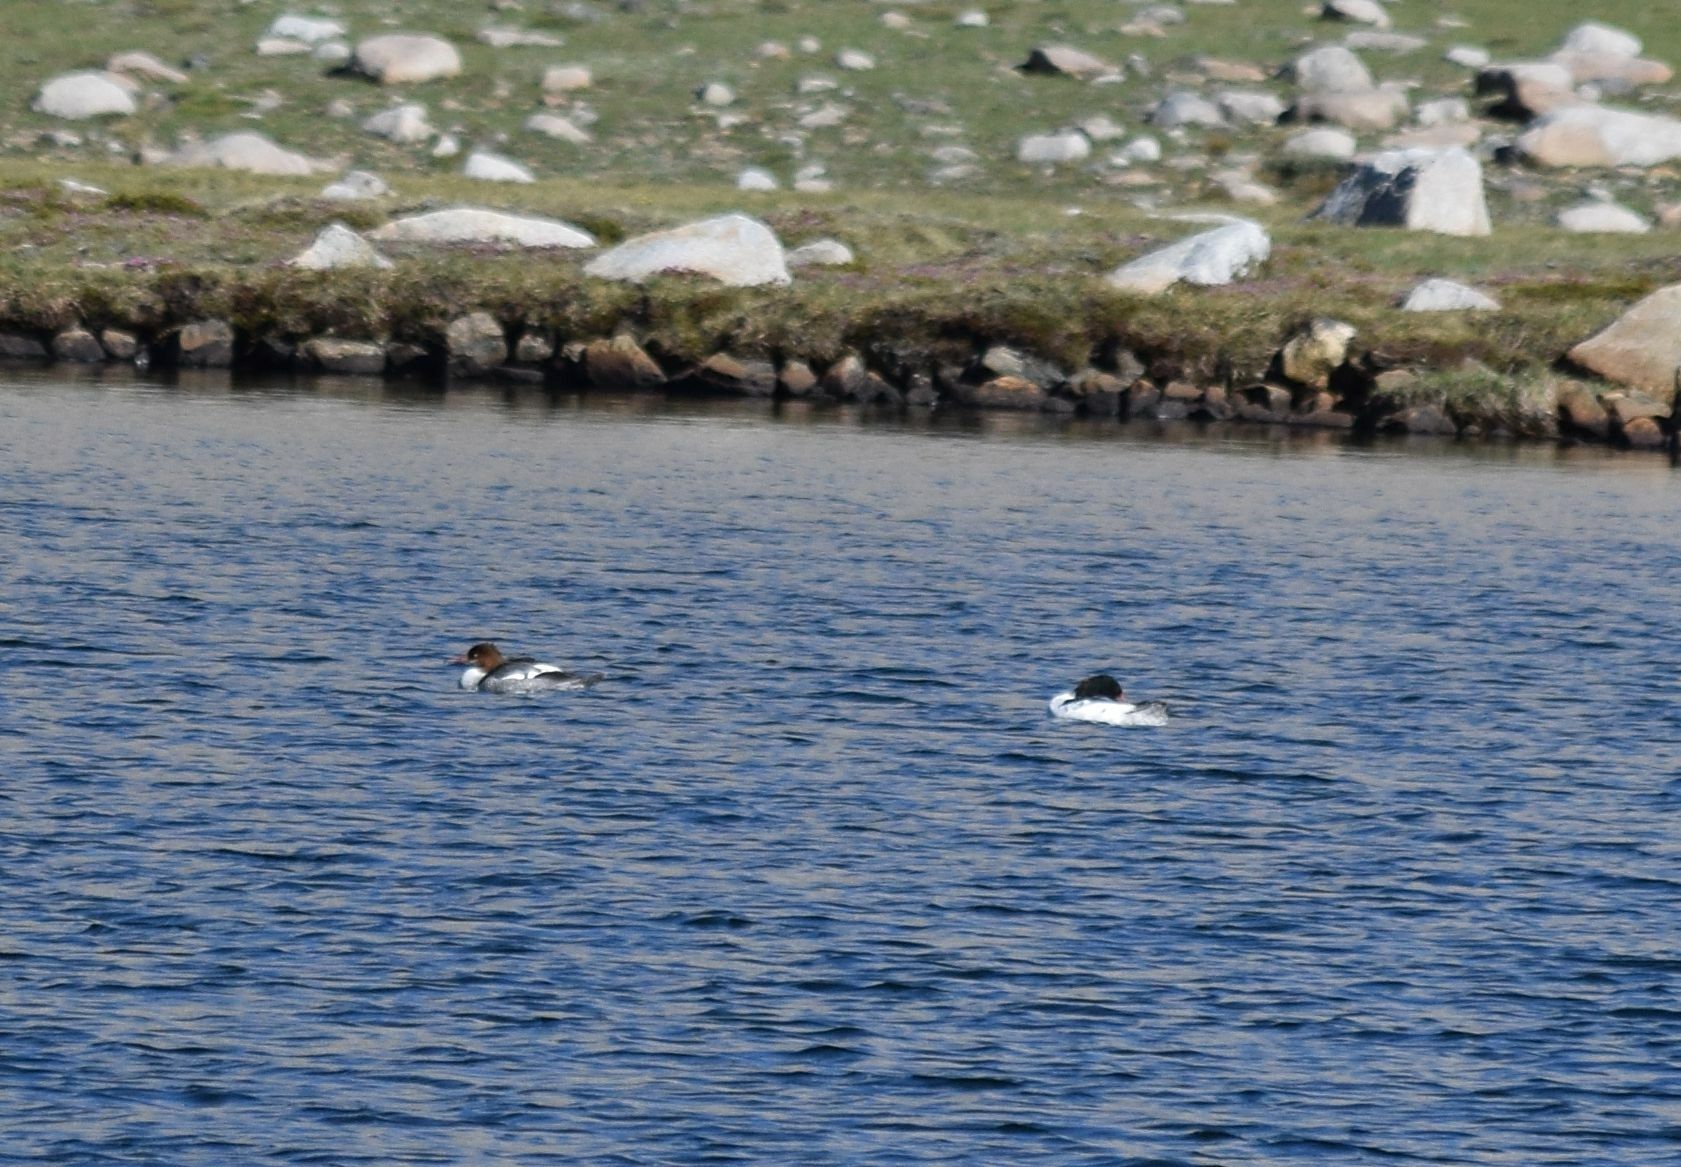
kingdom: Animalia
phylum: Chordata
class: Aves
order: Anseriformes
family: Anatidae
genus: Mergus
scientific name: Mergus merganser
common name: Common merganser
